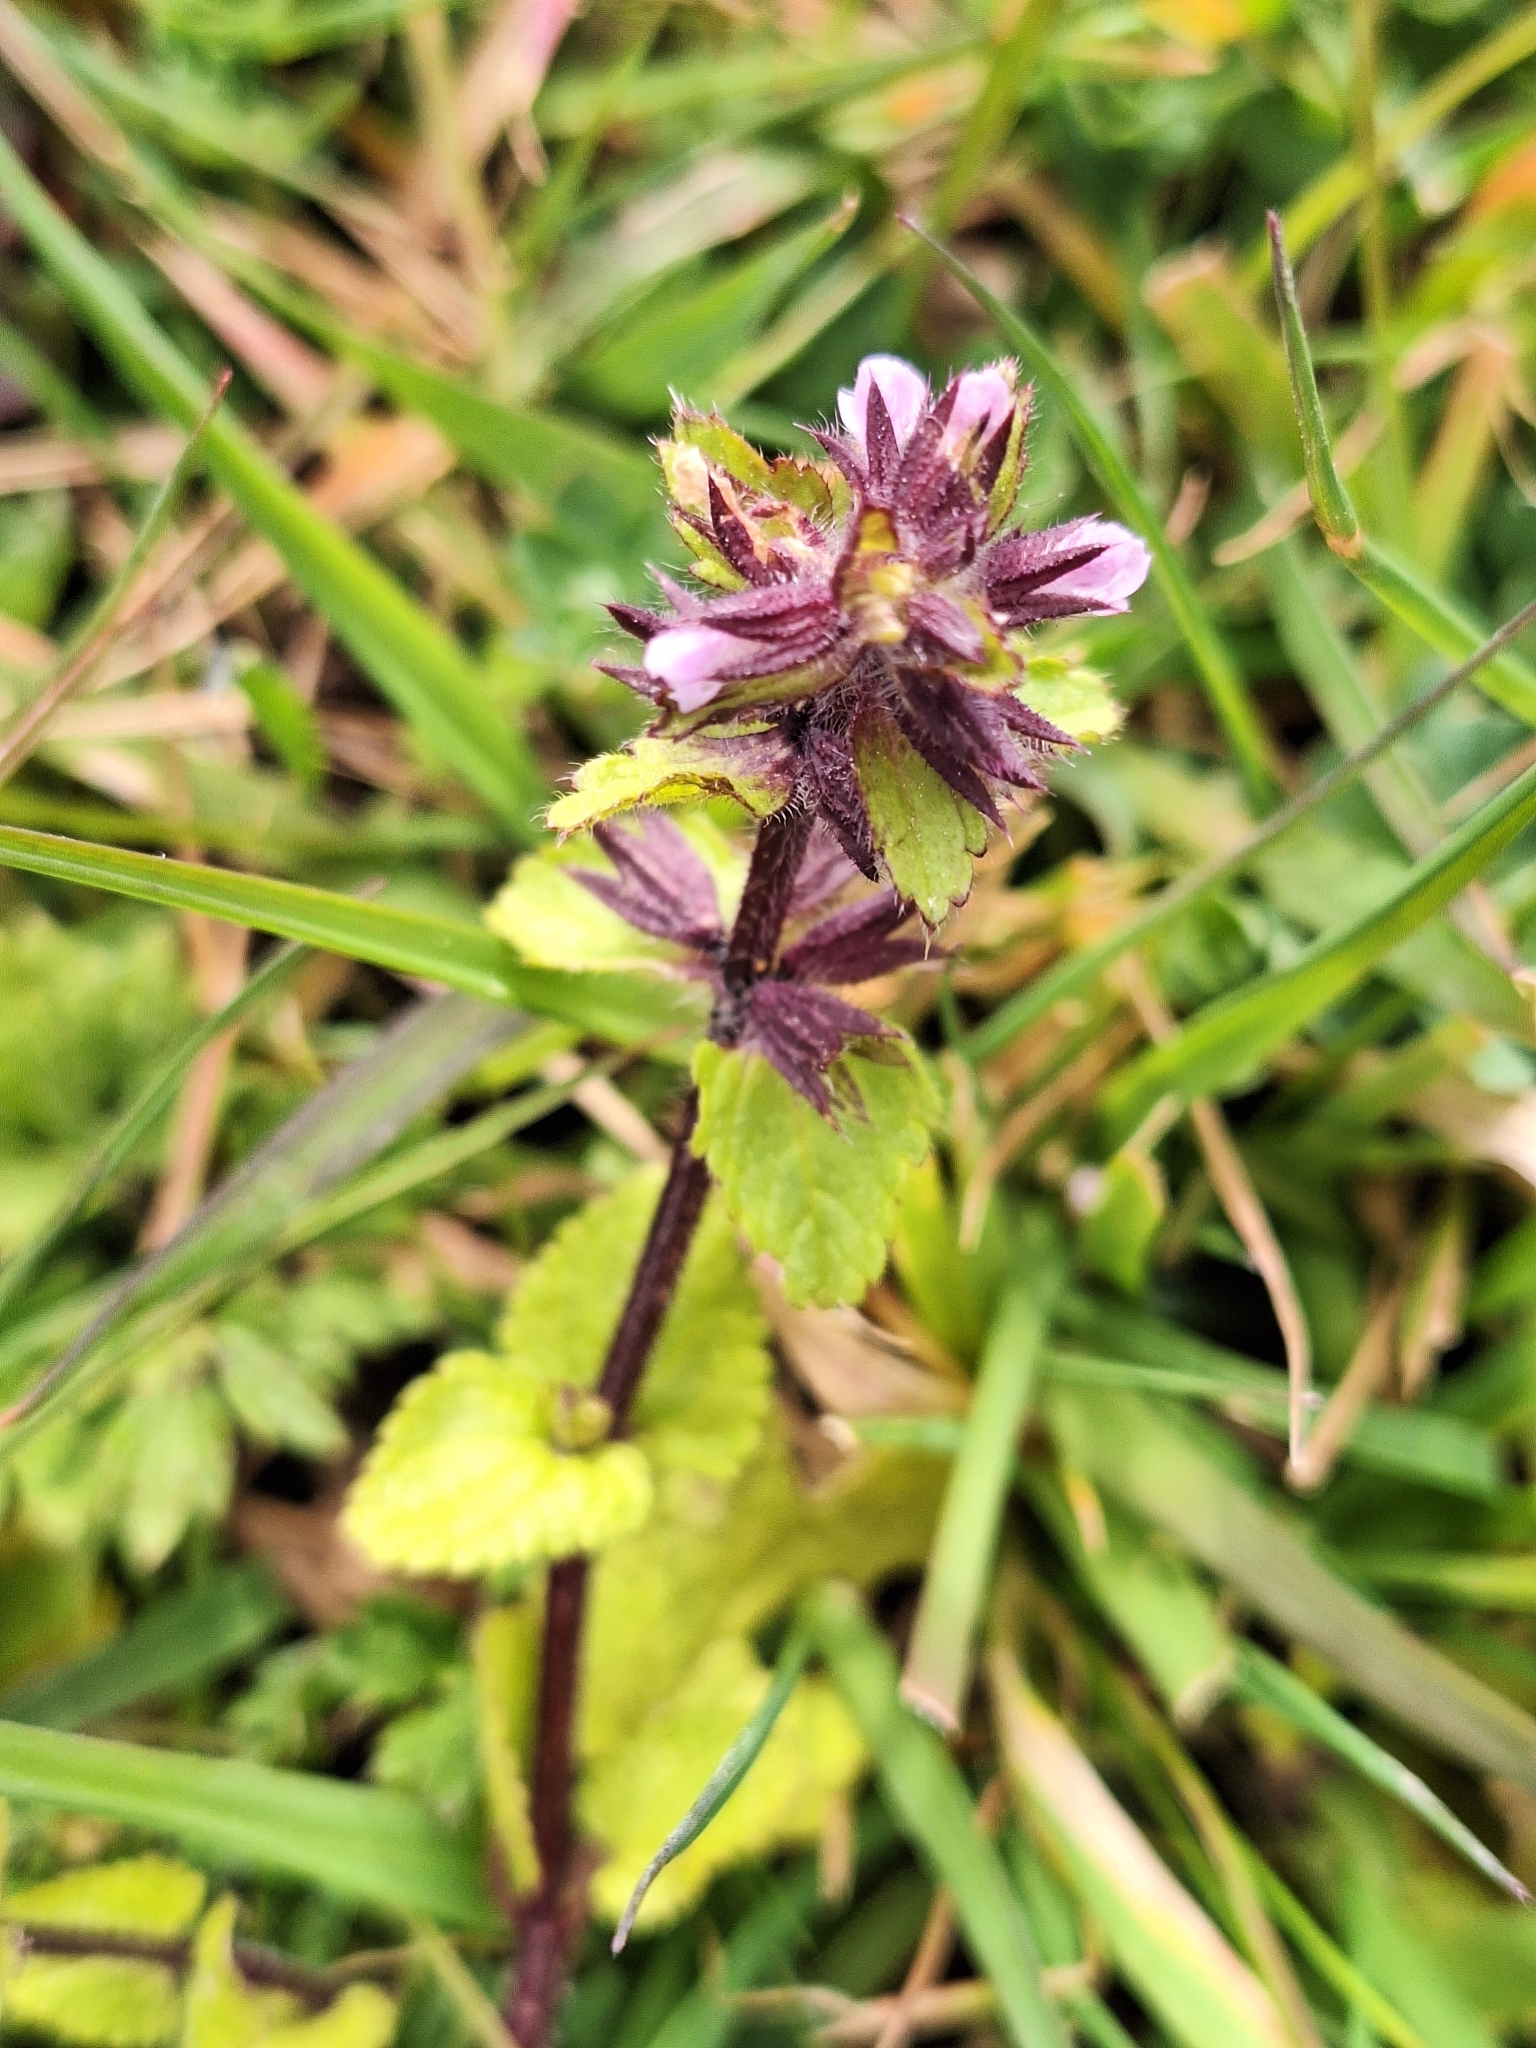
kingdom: Plantae
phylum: Tracheophyta
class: Magnoliopsida
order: Lamiales
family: Lamiaceae
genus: Stachys
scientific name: Stachys arvensis
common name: Field woundwort
